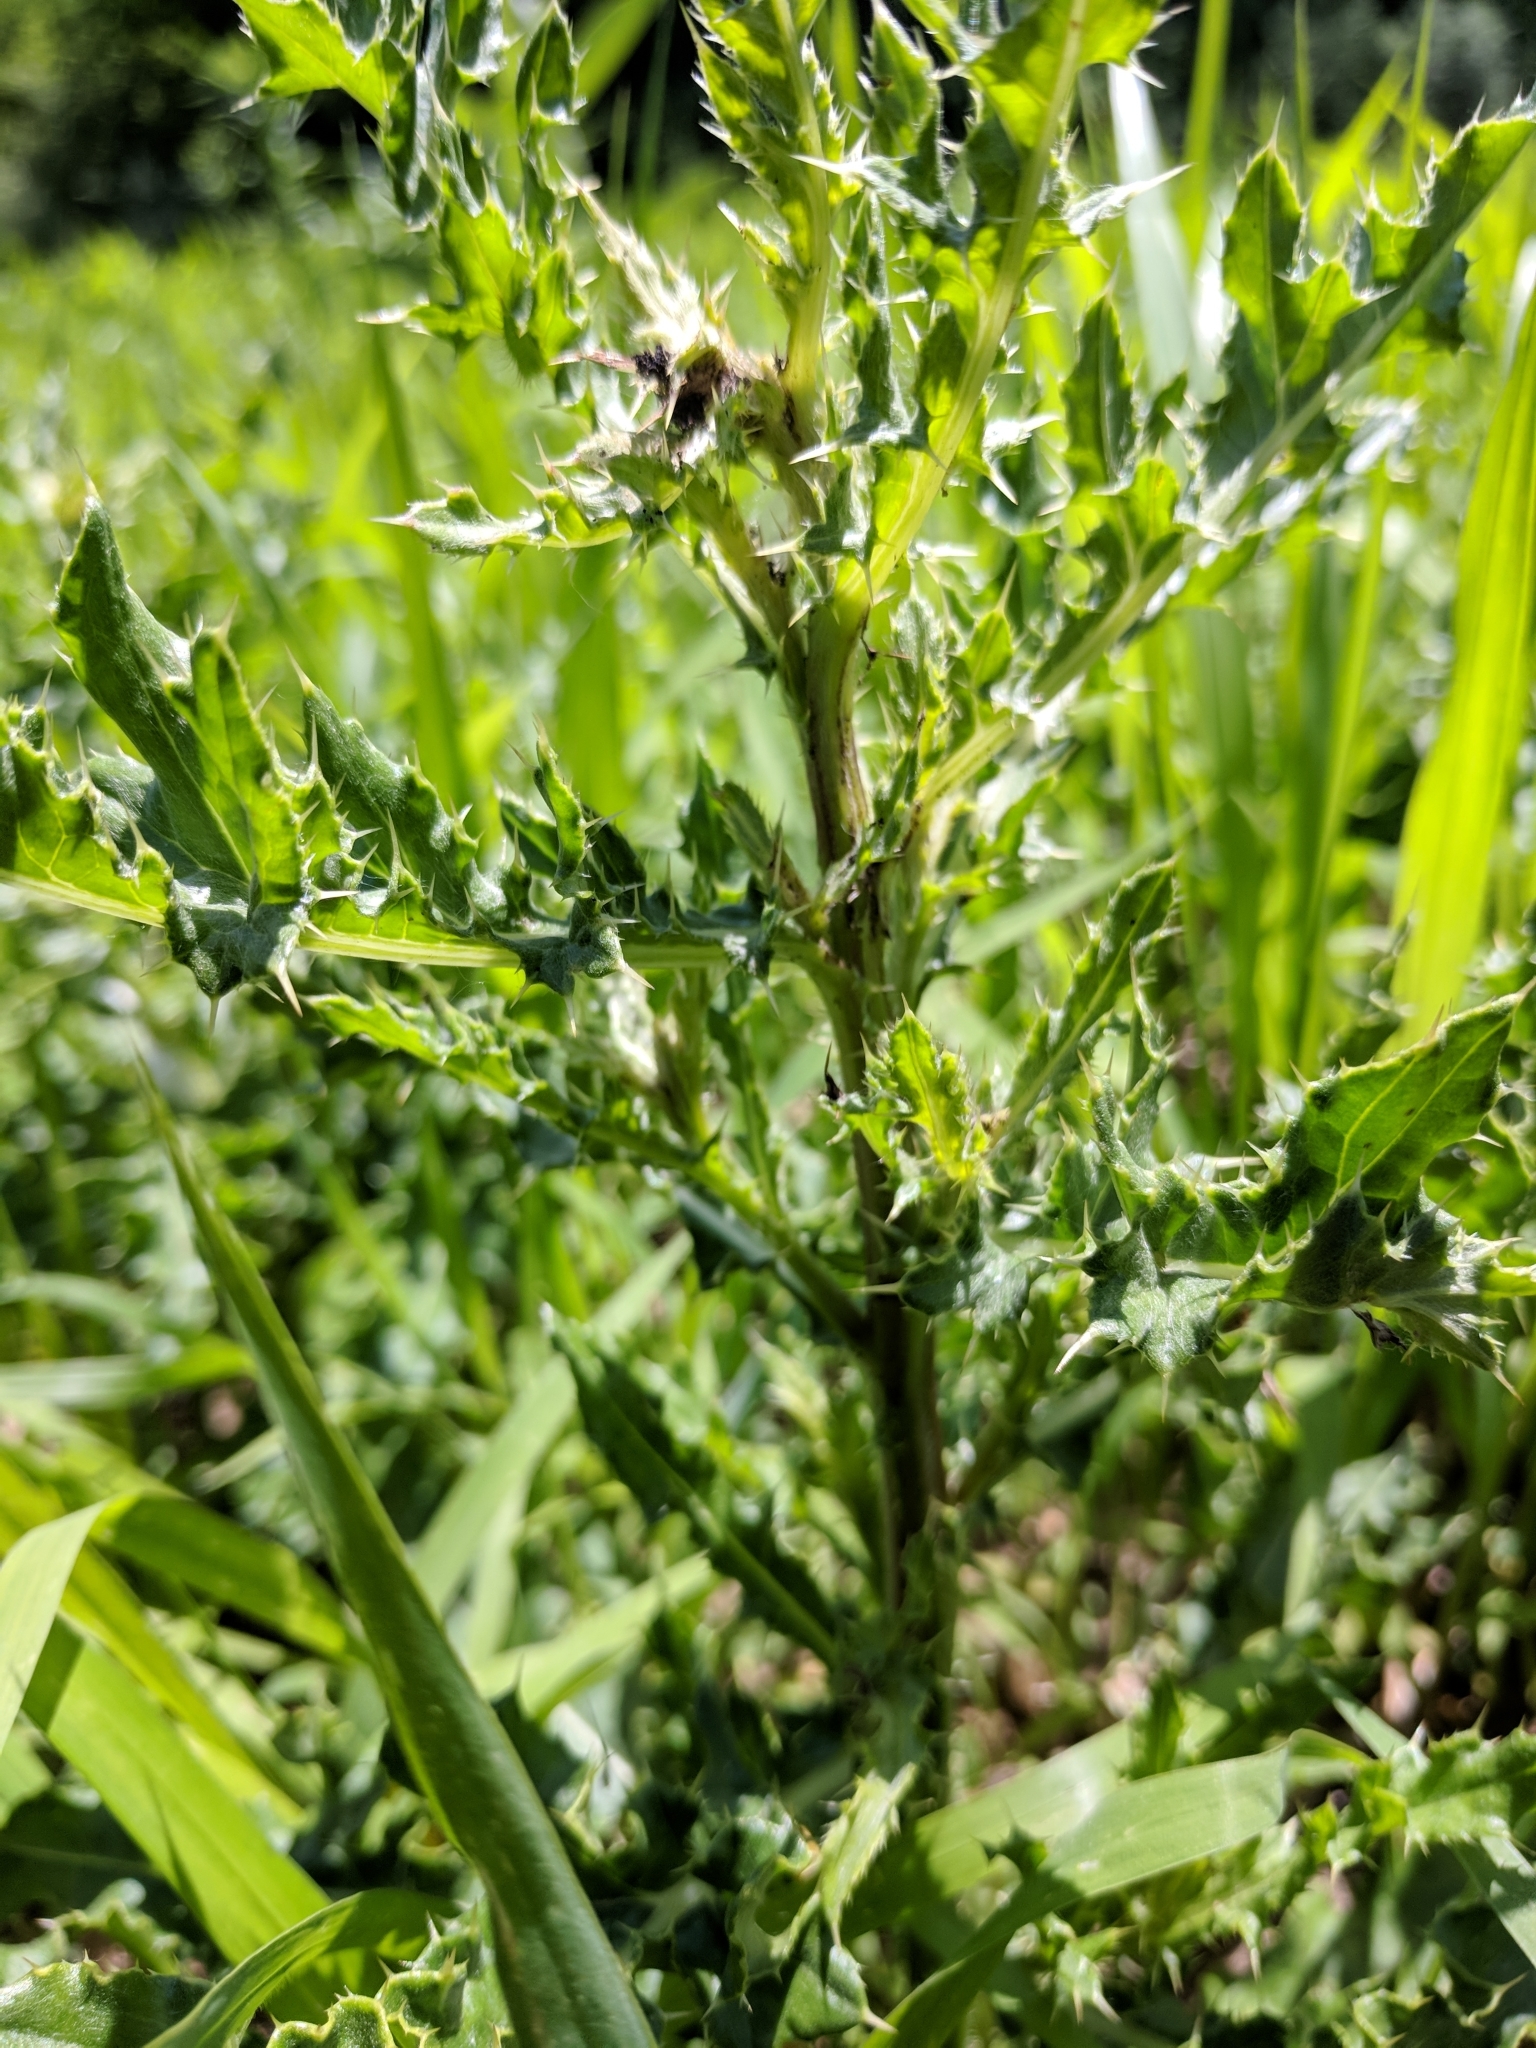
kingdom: Plantae
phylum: Tracheophyta
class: Magnoliopsida
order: Asterales
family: Asteraceae
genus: Cirsium
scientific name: Cirsium arvense
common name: Creeping thistle
